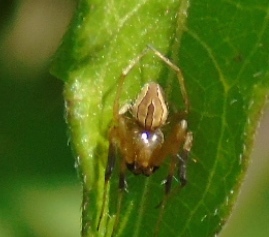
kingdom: Animalia
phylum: Arthropoda
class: Arachnida
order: Araneae
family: Araneidae
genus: Acacesia
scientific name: Acacesia hamata
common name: Orb weavers
